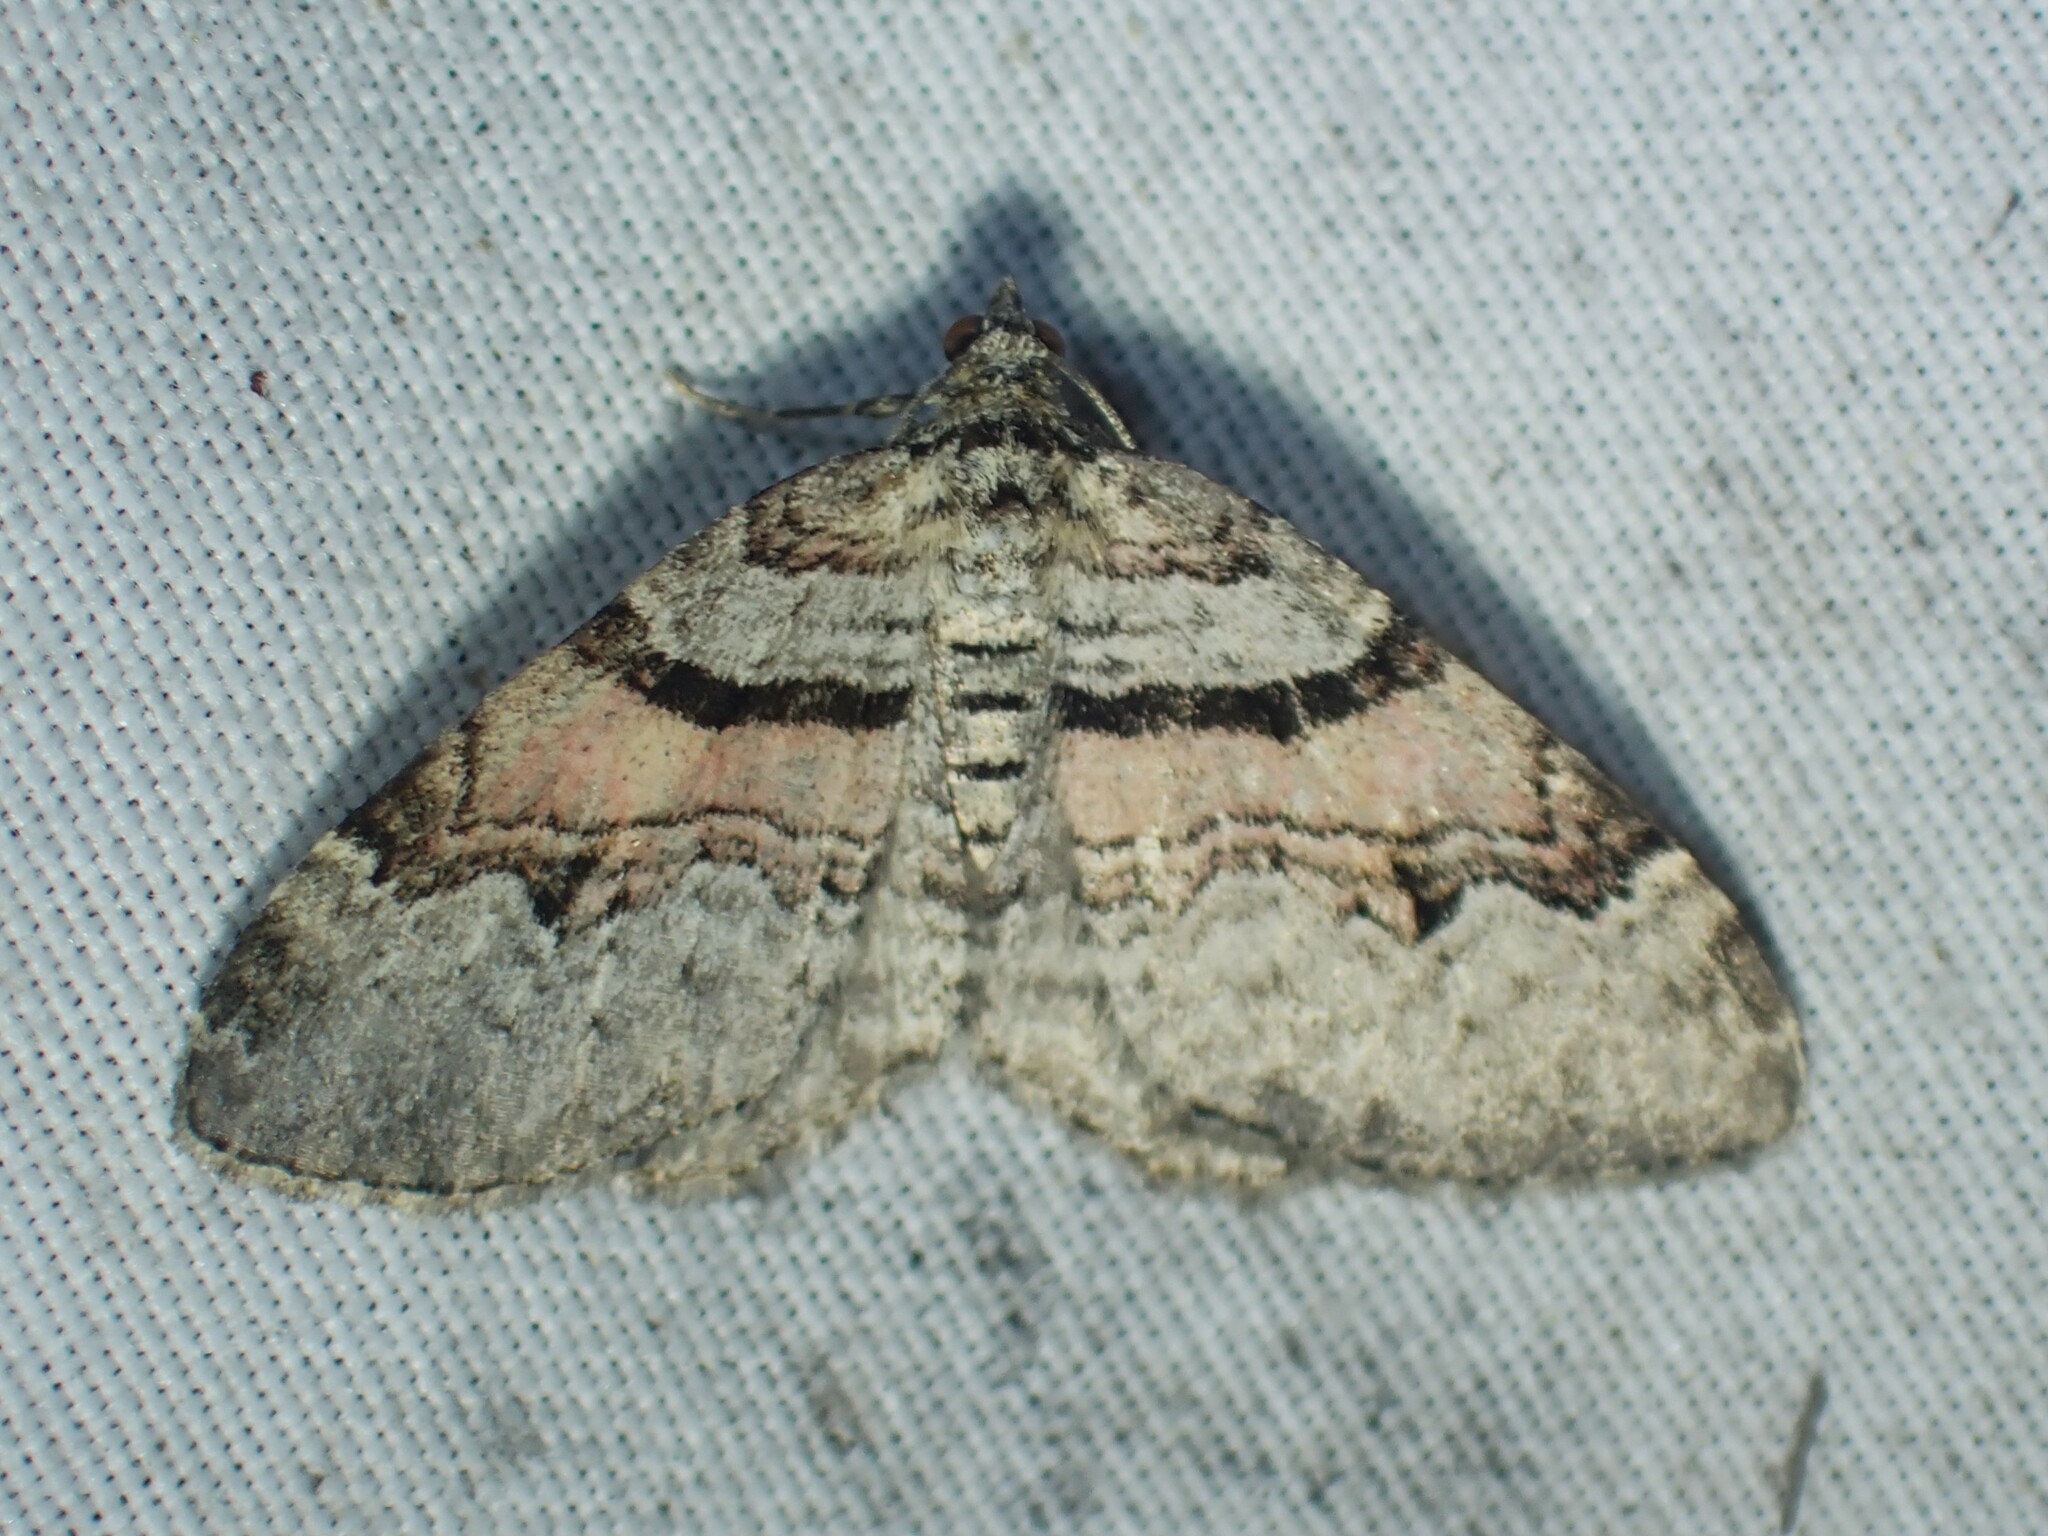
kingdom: Animalia
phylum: Arthropoda
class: Insecta
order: Lepidoptera
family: Geometridae
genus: Xanthorhoe
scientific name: Xanthorhoe labradorensis
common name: Labrador carpet
